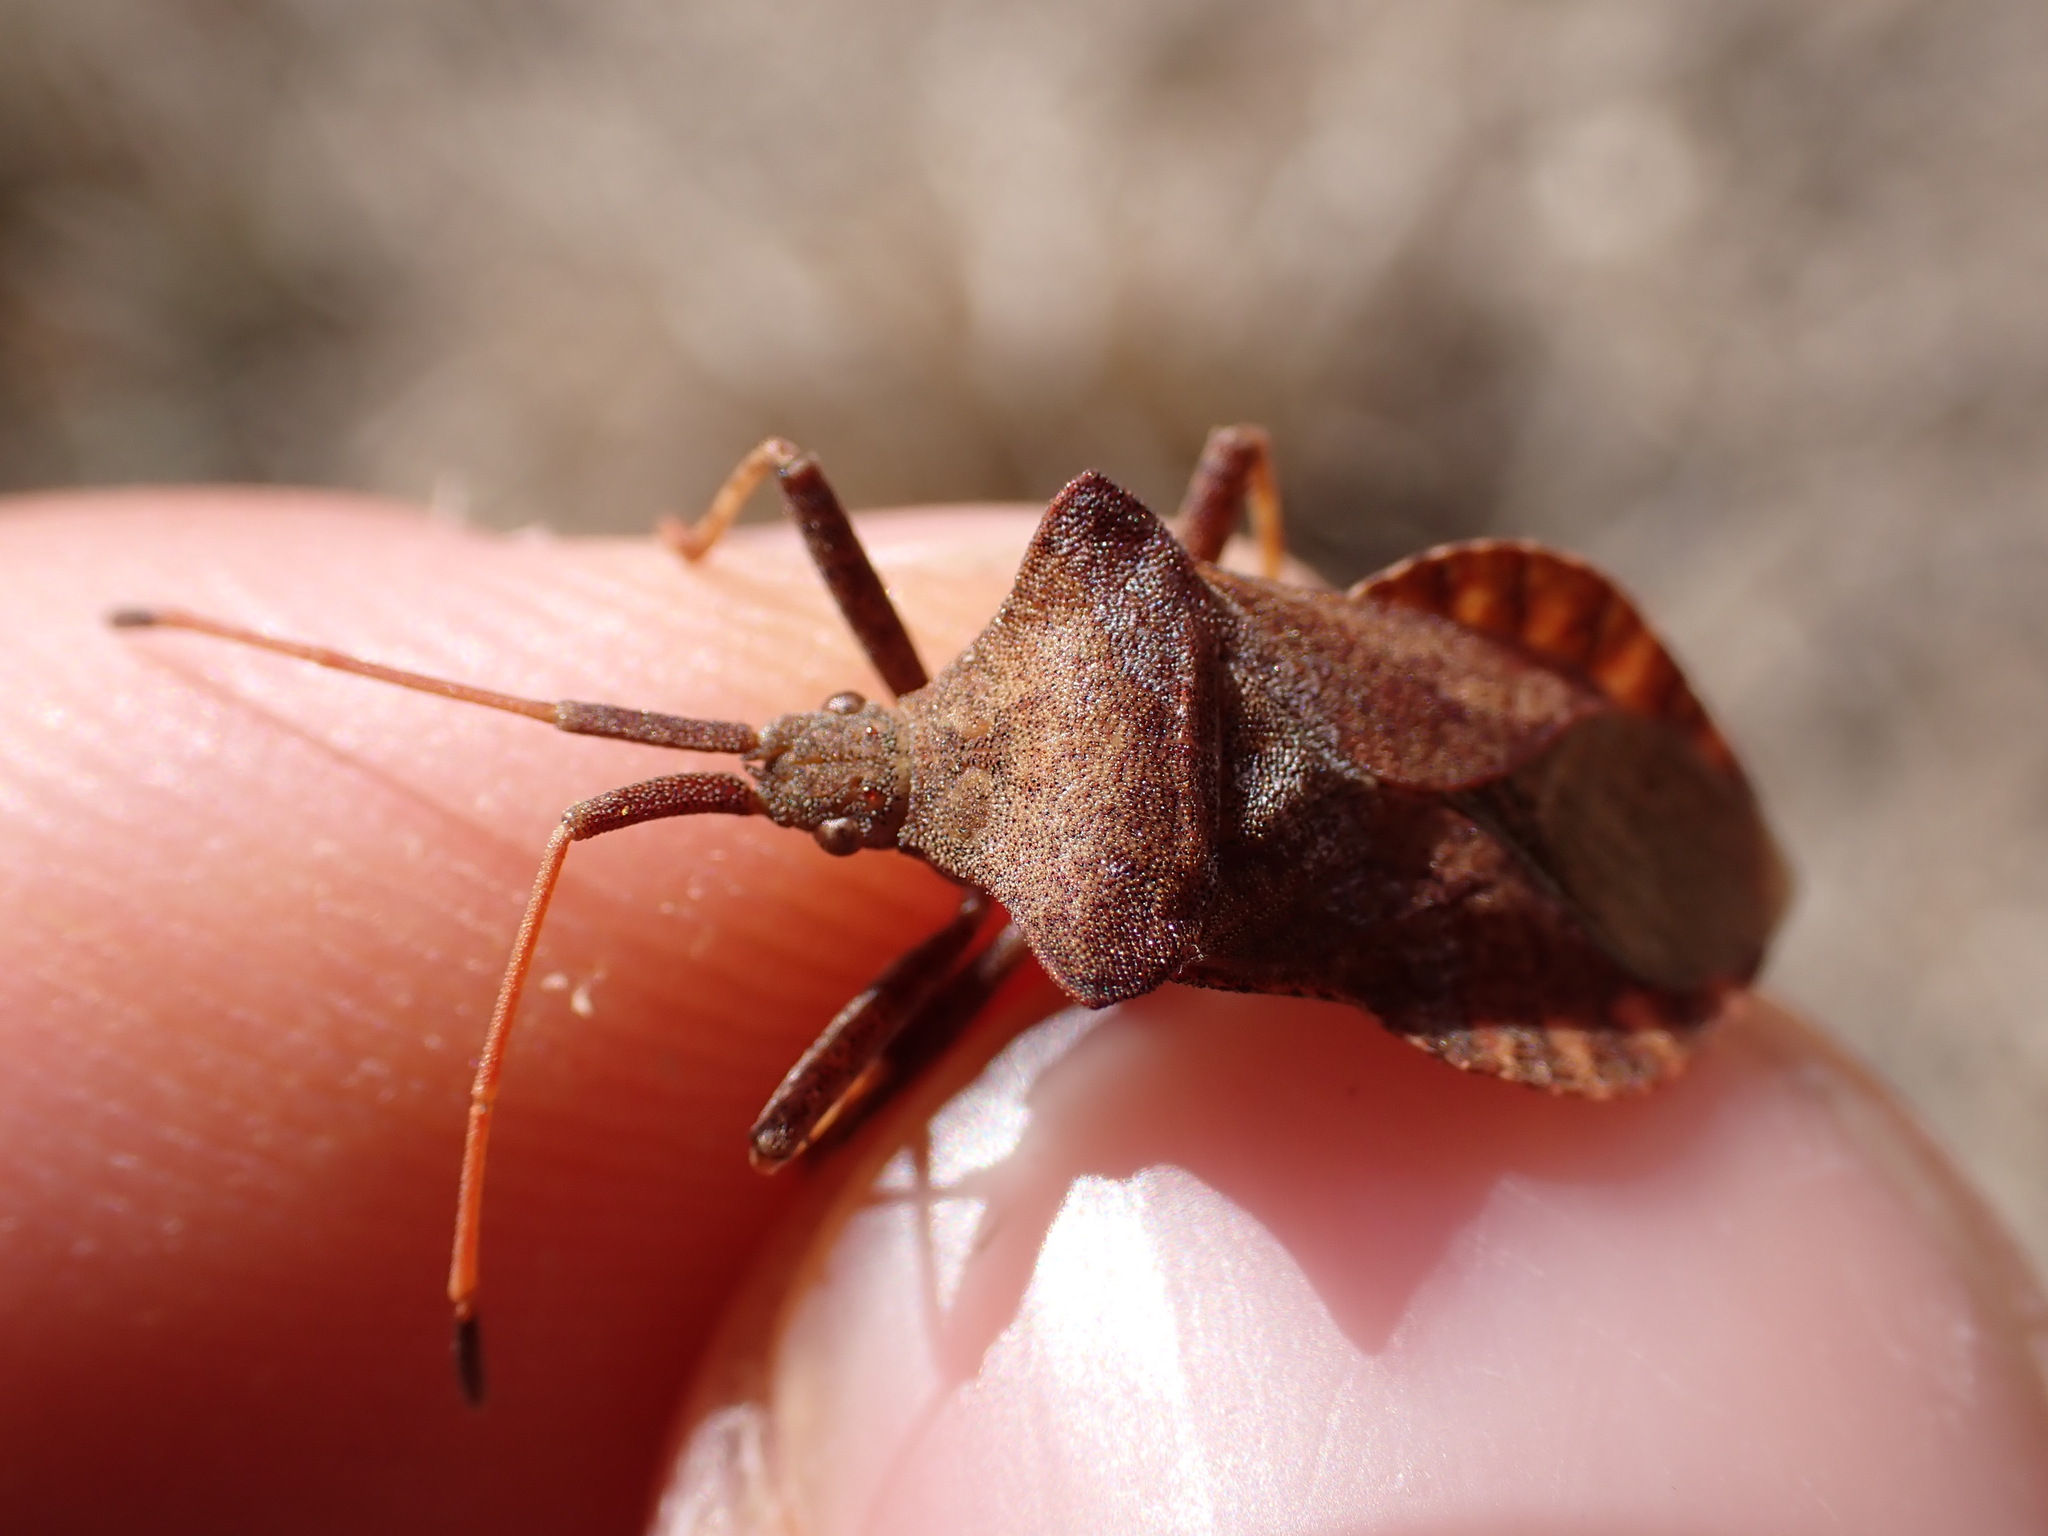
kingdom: Animalia
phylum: Arthropoda
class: Insecta
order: Hemiptera
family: Coreidae
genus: Coreus
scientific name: Coreus marginatus
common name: Dock bug
